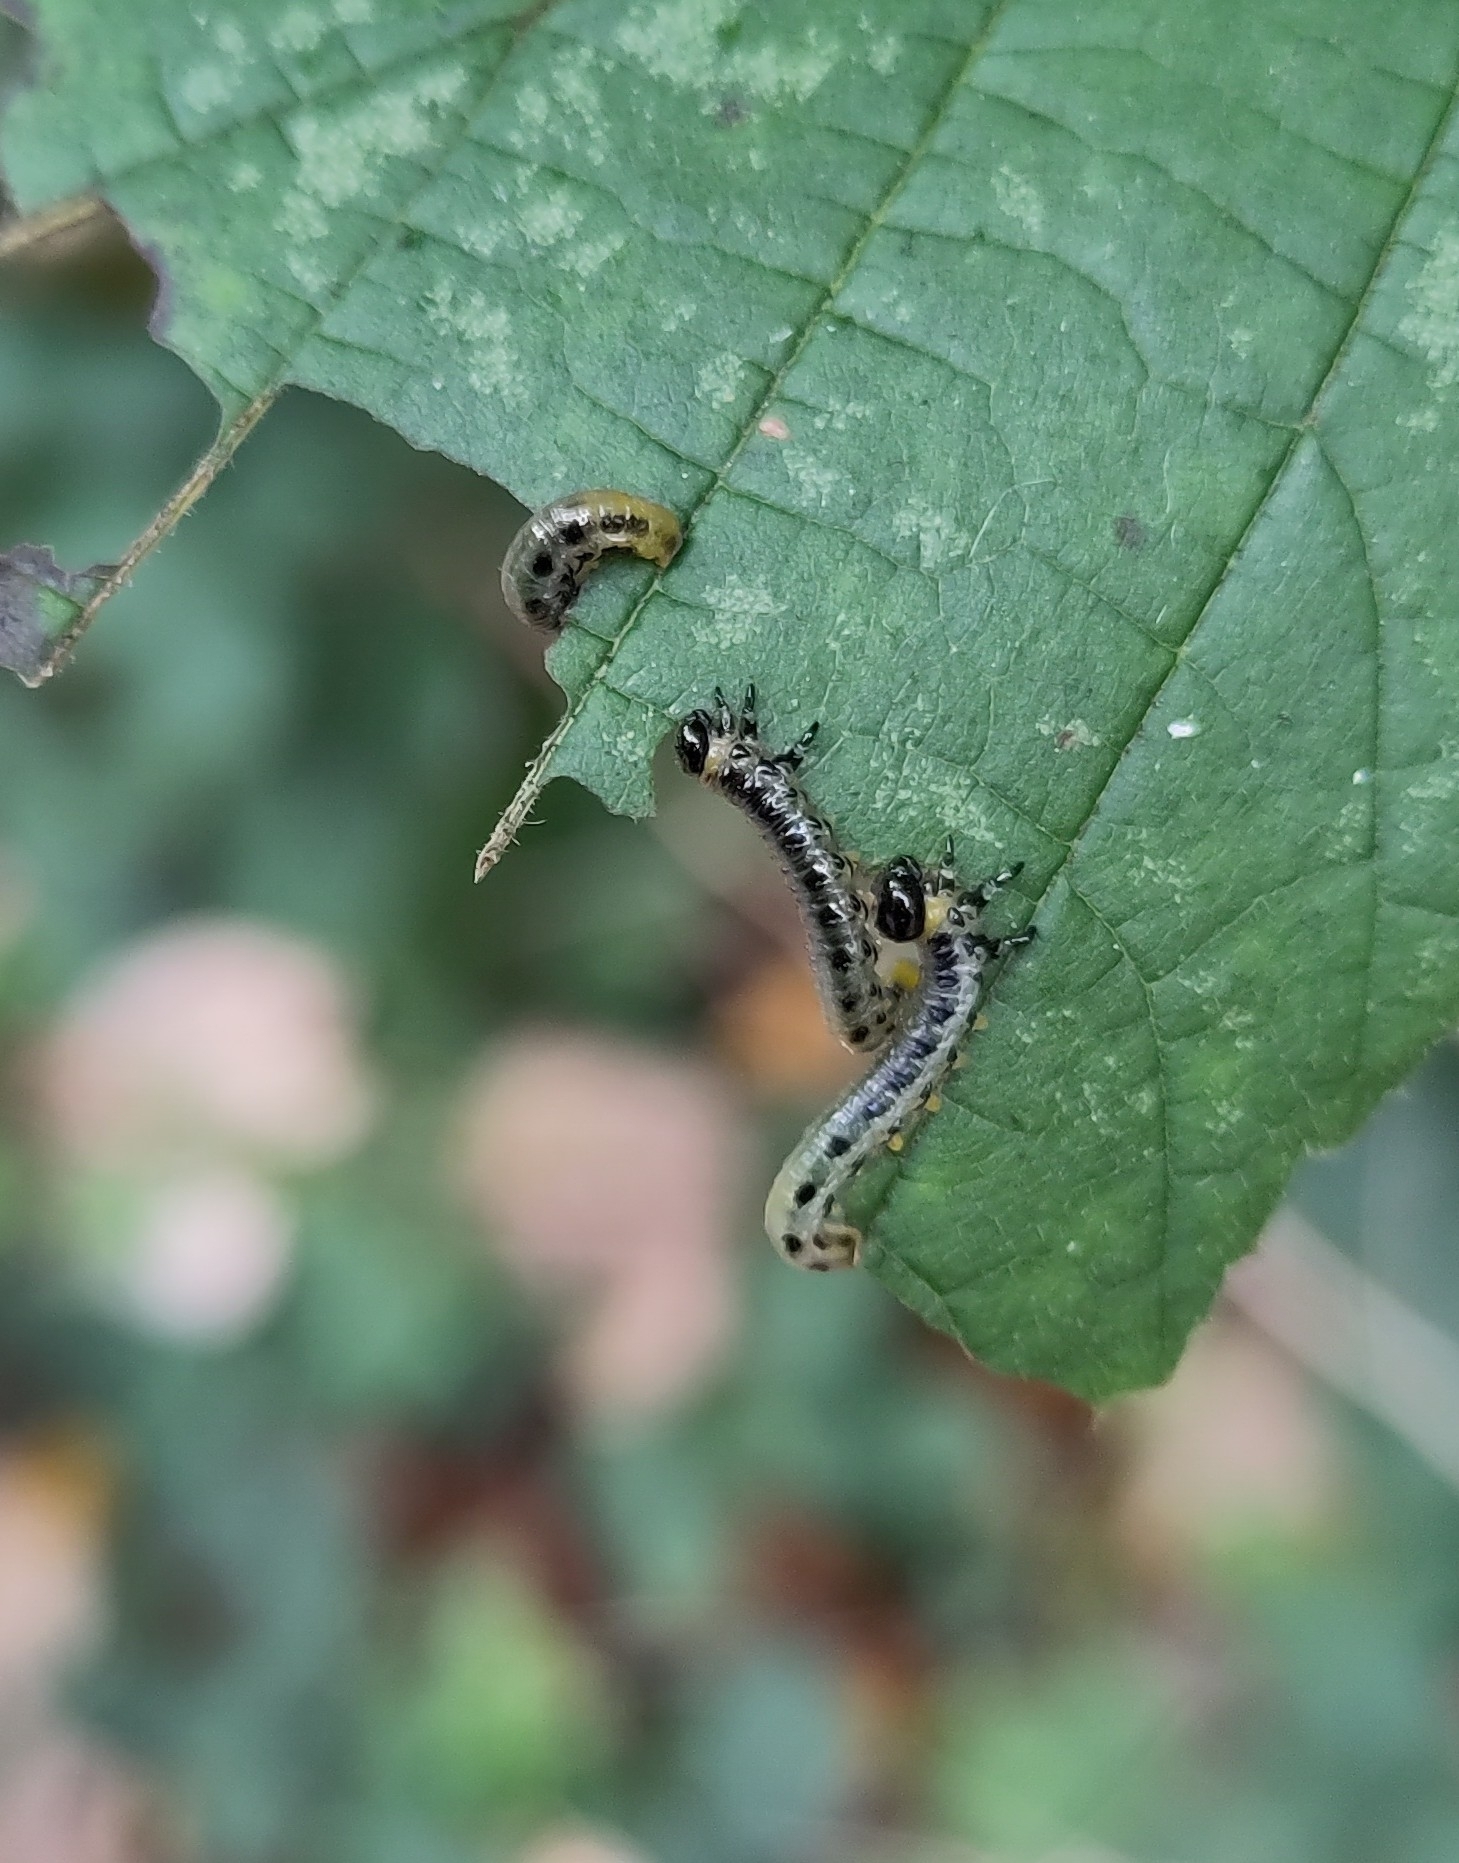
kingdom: Animalia
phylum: Arthropoda
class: Insecta
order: Hymenoptera
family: Tenthredinidae
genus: Craesus
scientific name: Craesus septentrionalis
